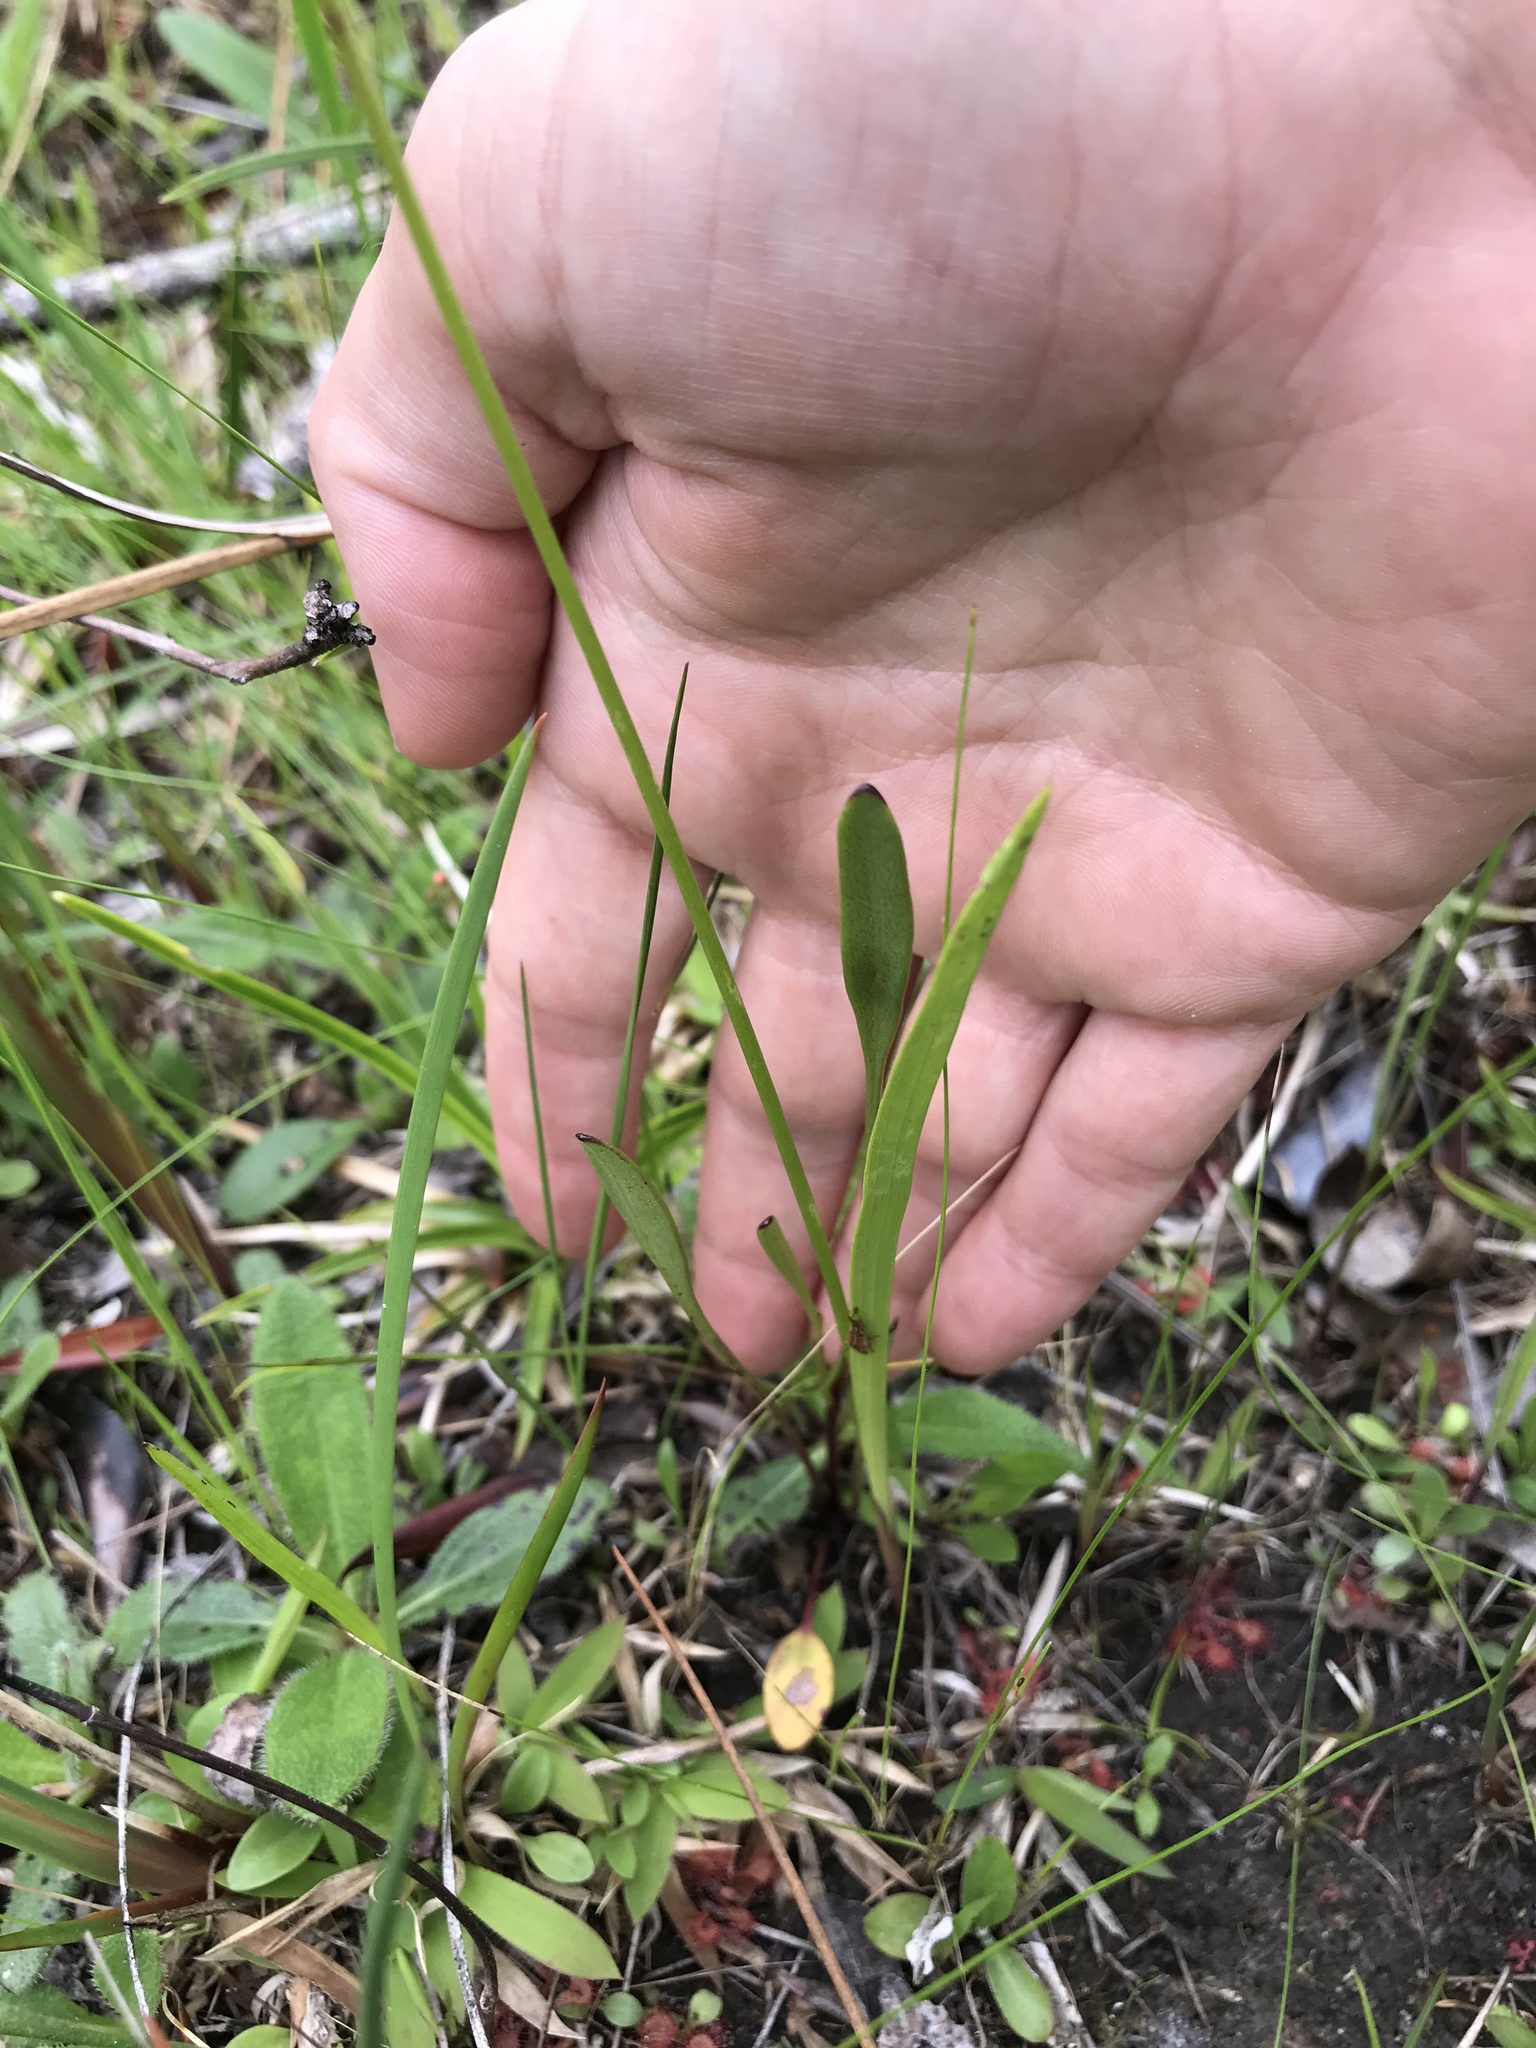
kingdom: Plantae
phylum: Tracheophyta
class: Liliopsida
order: Asparagales
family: Orchidaceae
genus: Calopogon
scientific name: Calopogon tuberosus
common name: Grass-pink
